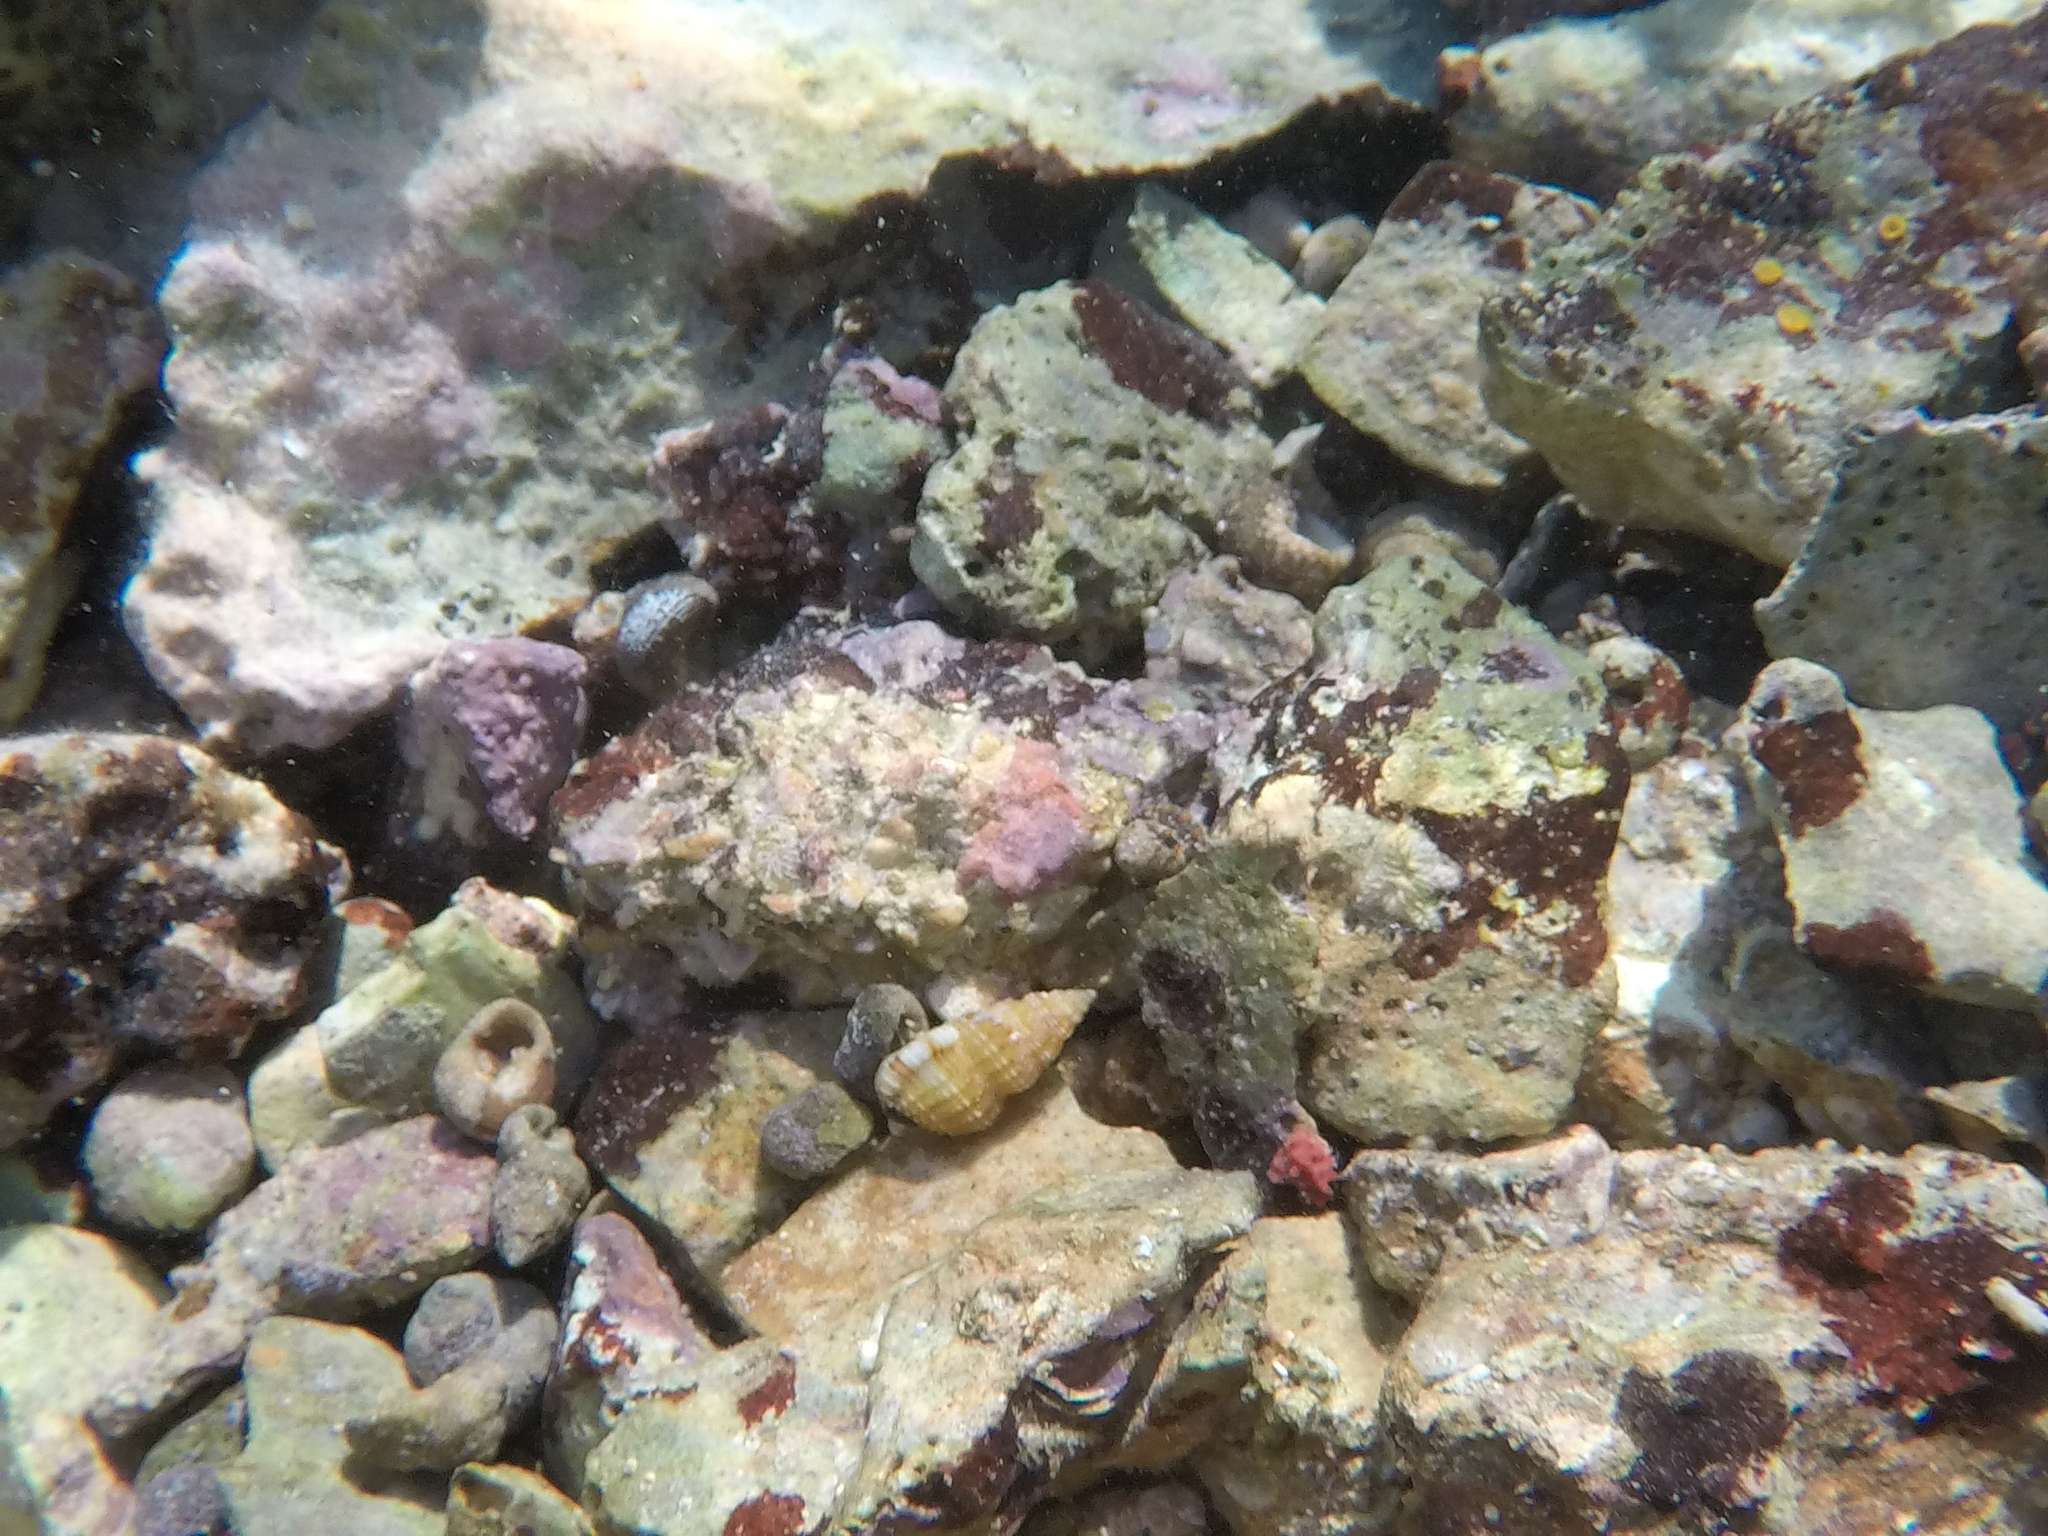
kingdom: Animalia
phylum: Mollusca
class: Gastropoda
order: Neogastropoda
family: Nassariidae
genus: Tritia
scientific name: Tritia incrassata
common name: Thick-lipped dog whelk
